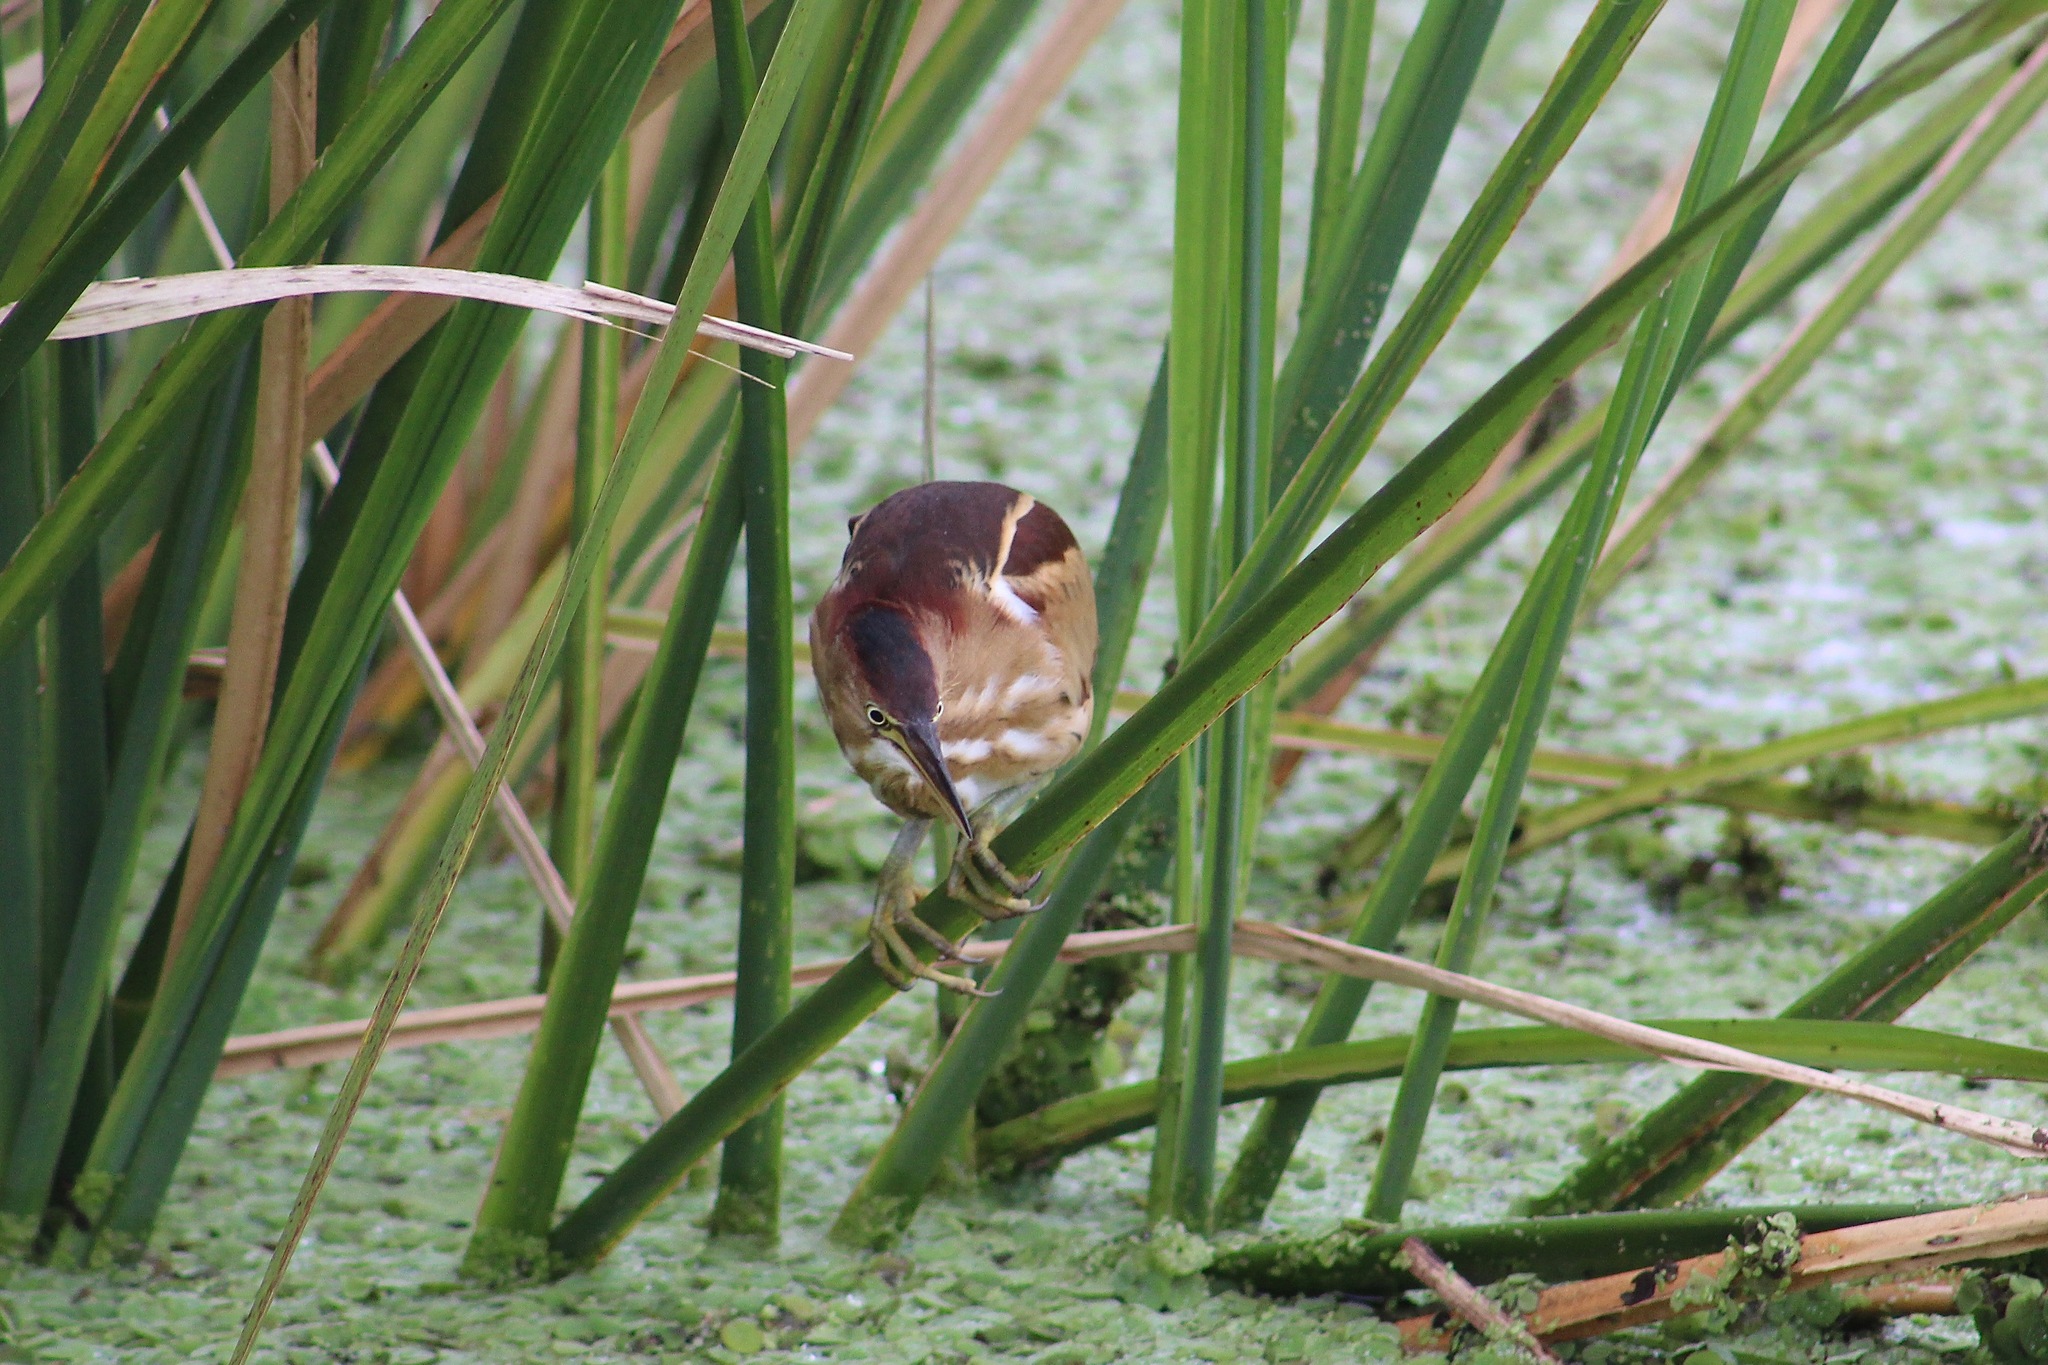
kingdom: Animalia
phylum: Chordata
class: Aves
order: Pelecaniformes
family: Ardeidae
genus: Ixobrychus
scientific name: Ixobrychus exilis
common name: Least bittern
